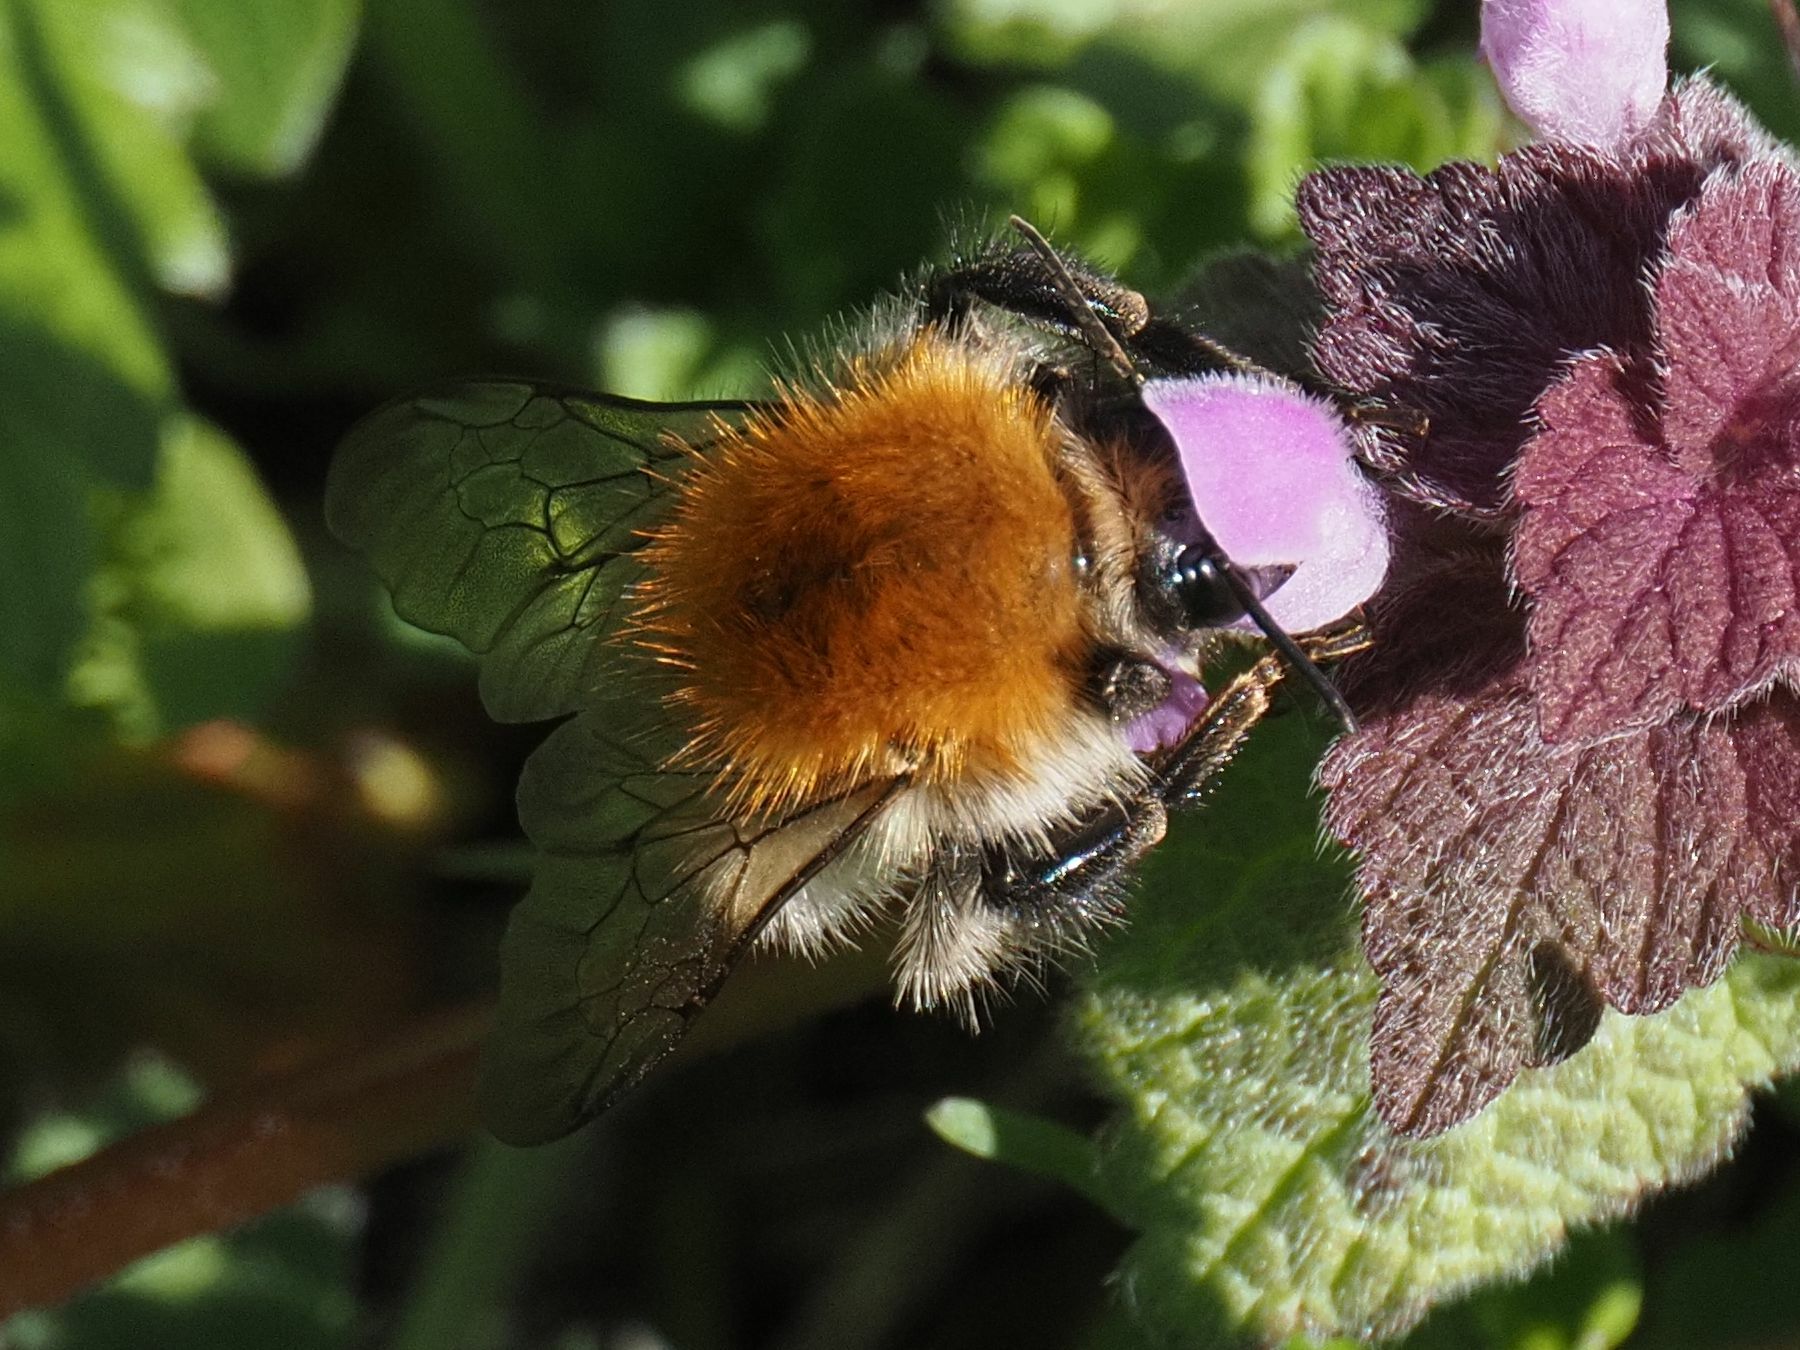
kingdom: Animalia
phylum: Arthropoda
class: Insecta
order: Hymenoptera
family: Apidae
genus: Bombus
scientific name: Bombus pascuorum
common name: Common carder bee
